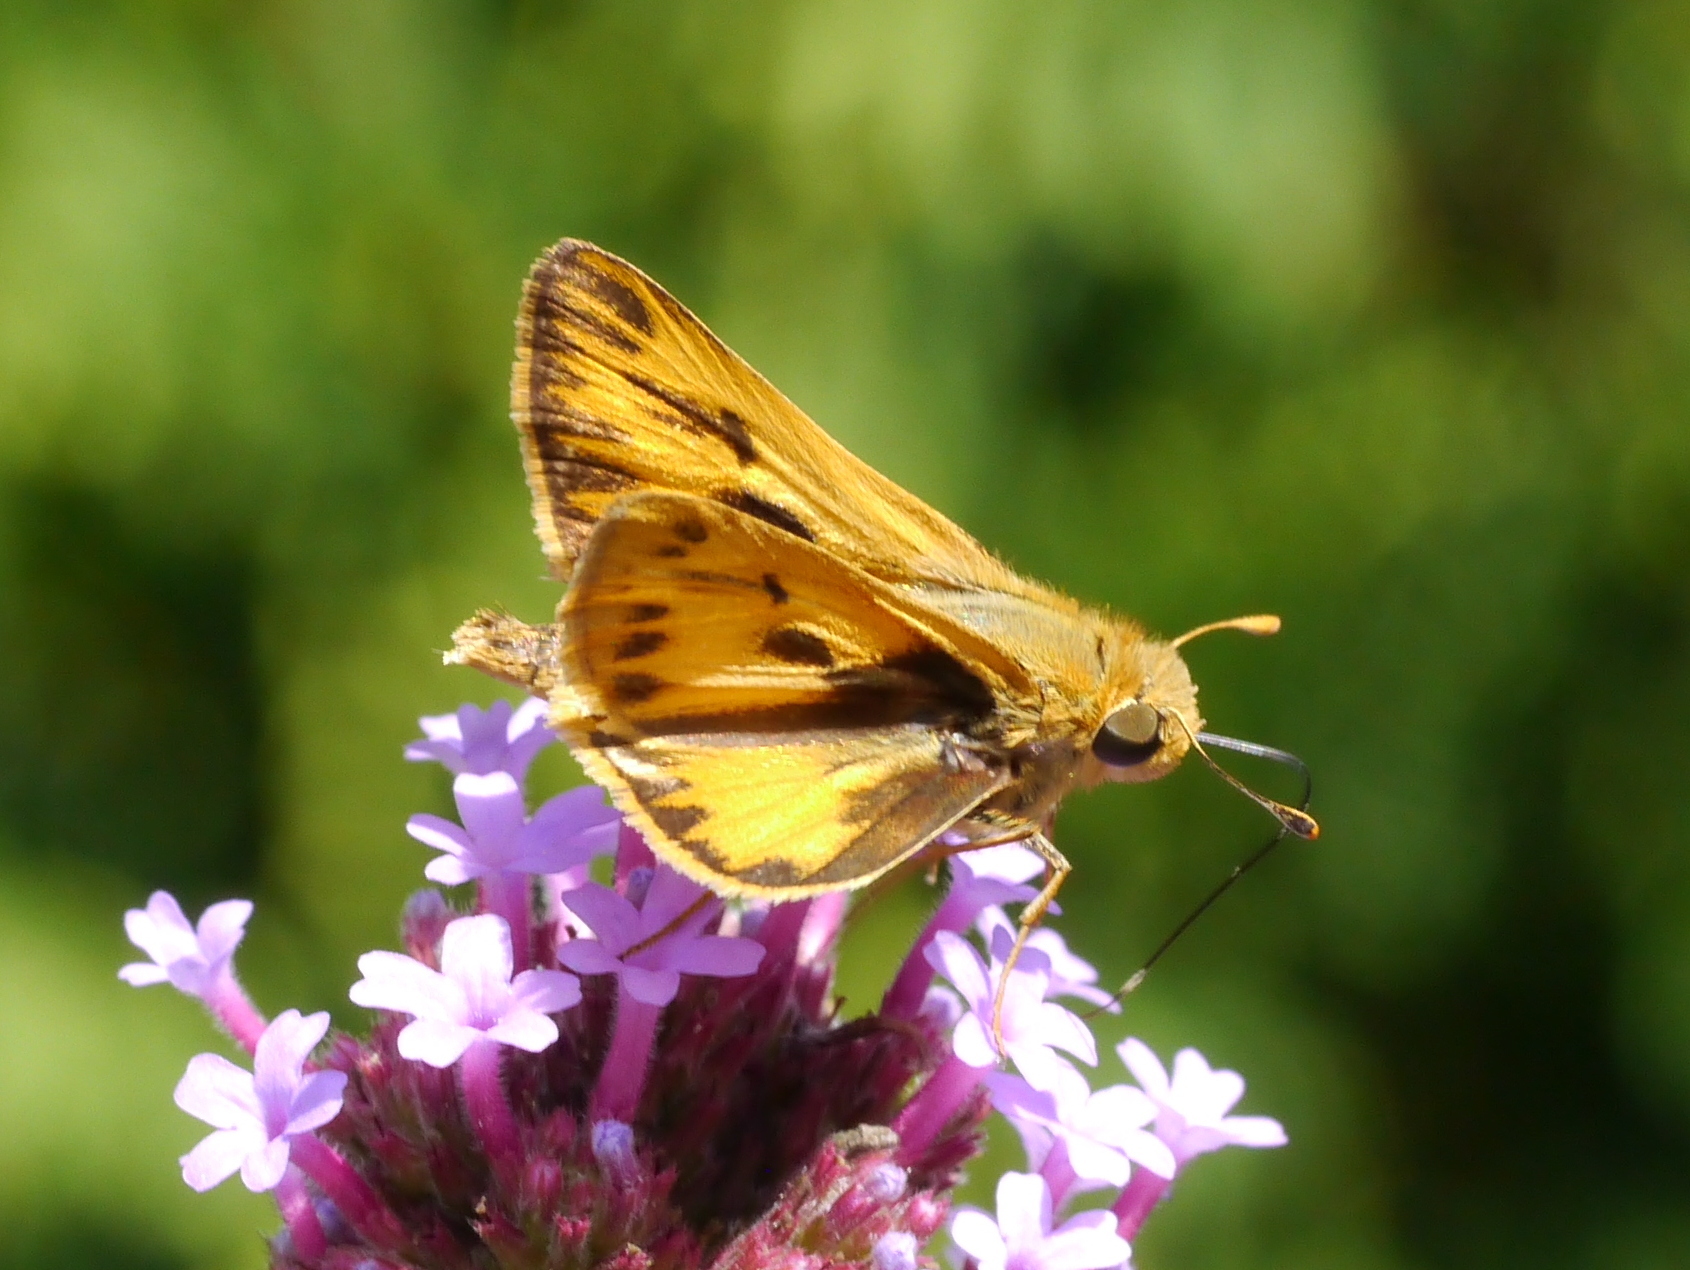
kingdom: Animalia
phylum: Arthropoda
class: Insecta
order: Lepidoptera
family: Hesperiidae
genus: Hylephila
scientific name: Hylephila phyleus
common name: Fiery skipper
